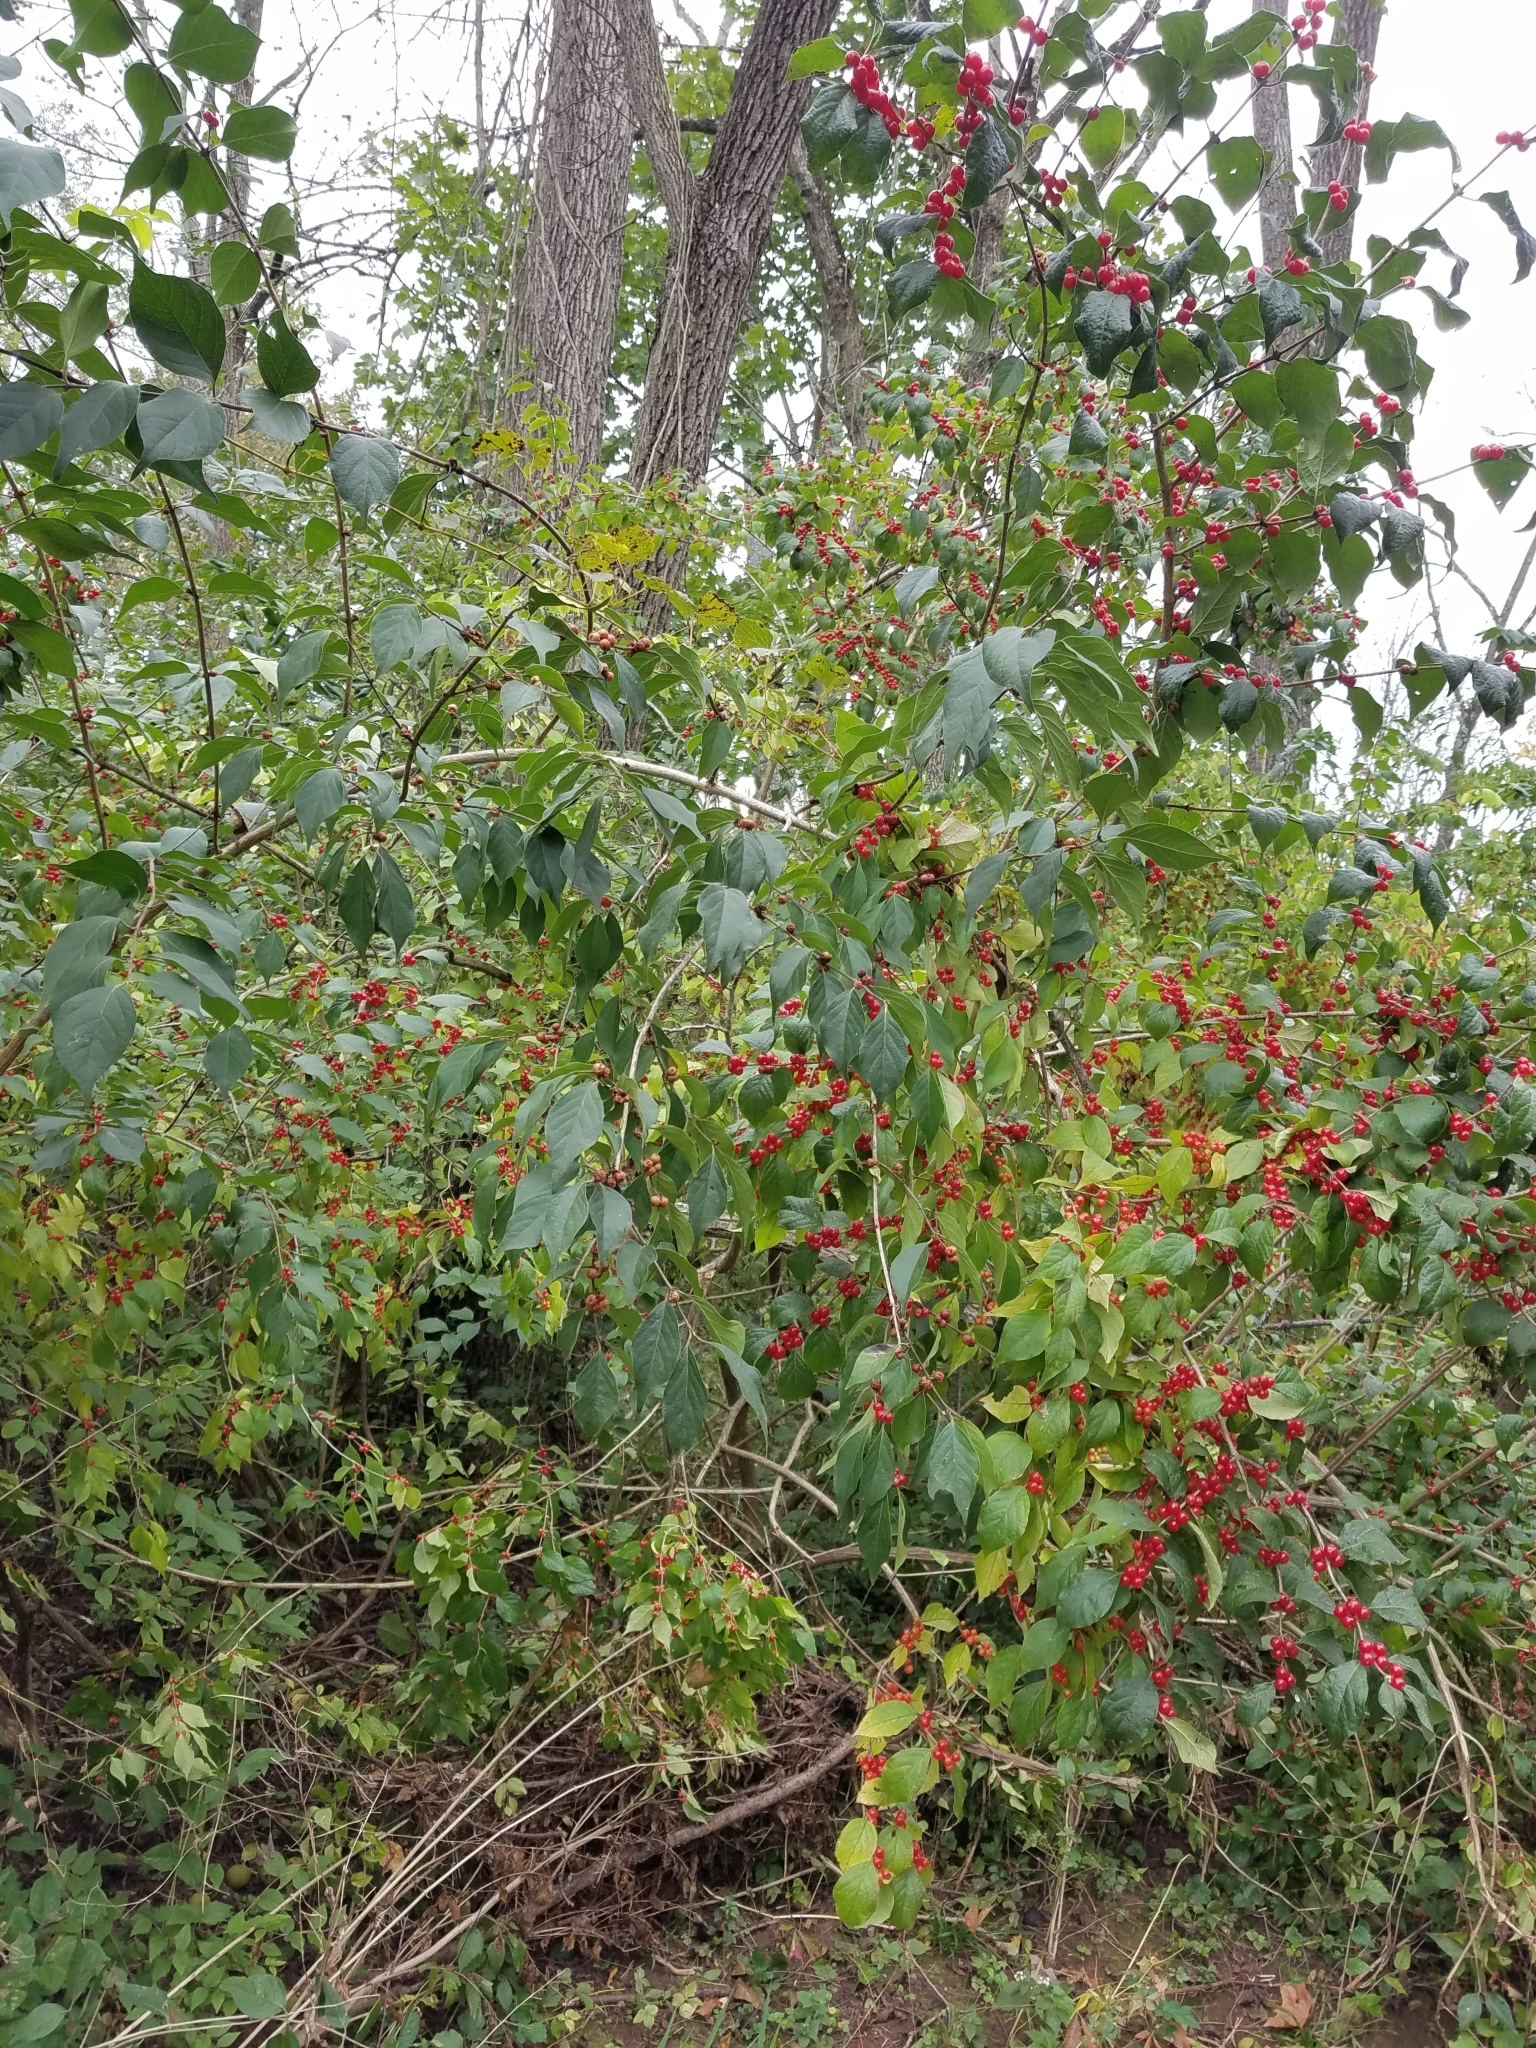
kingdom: Plantae
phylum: Tracheophyta
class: Magnoliopsida
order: Dipsacales
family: Caprifoliaceae
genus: Lonicera
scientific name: Lonicera maackii
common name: Amur honeysuckle
